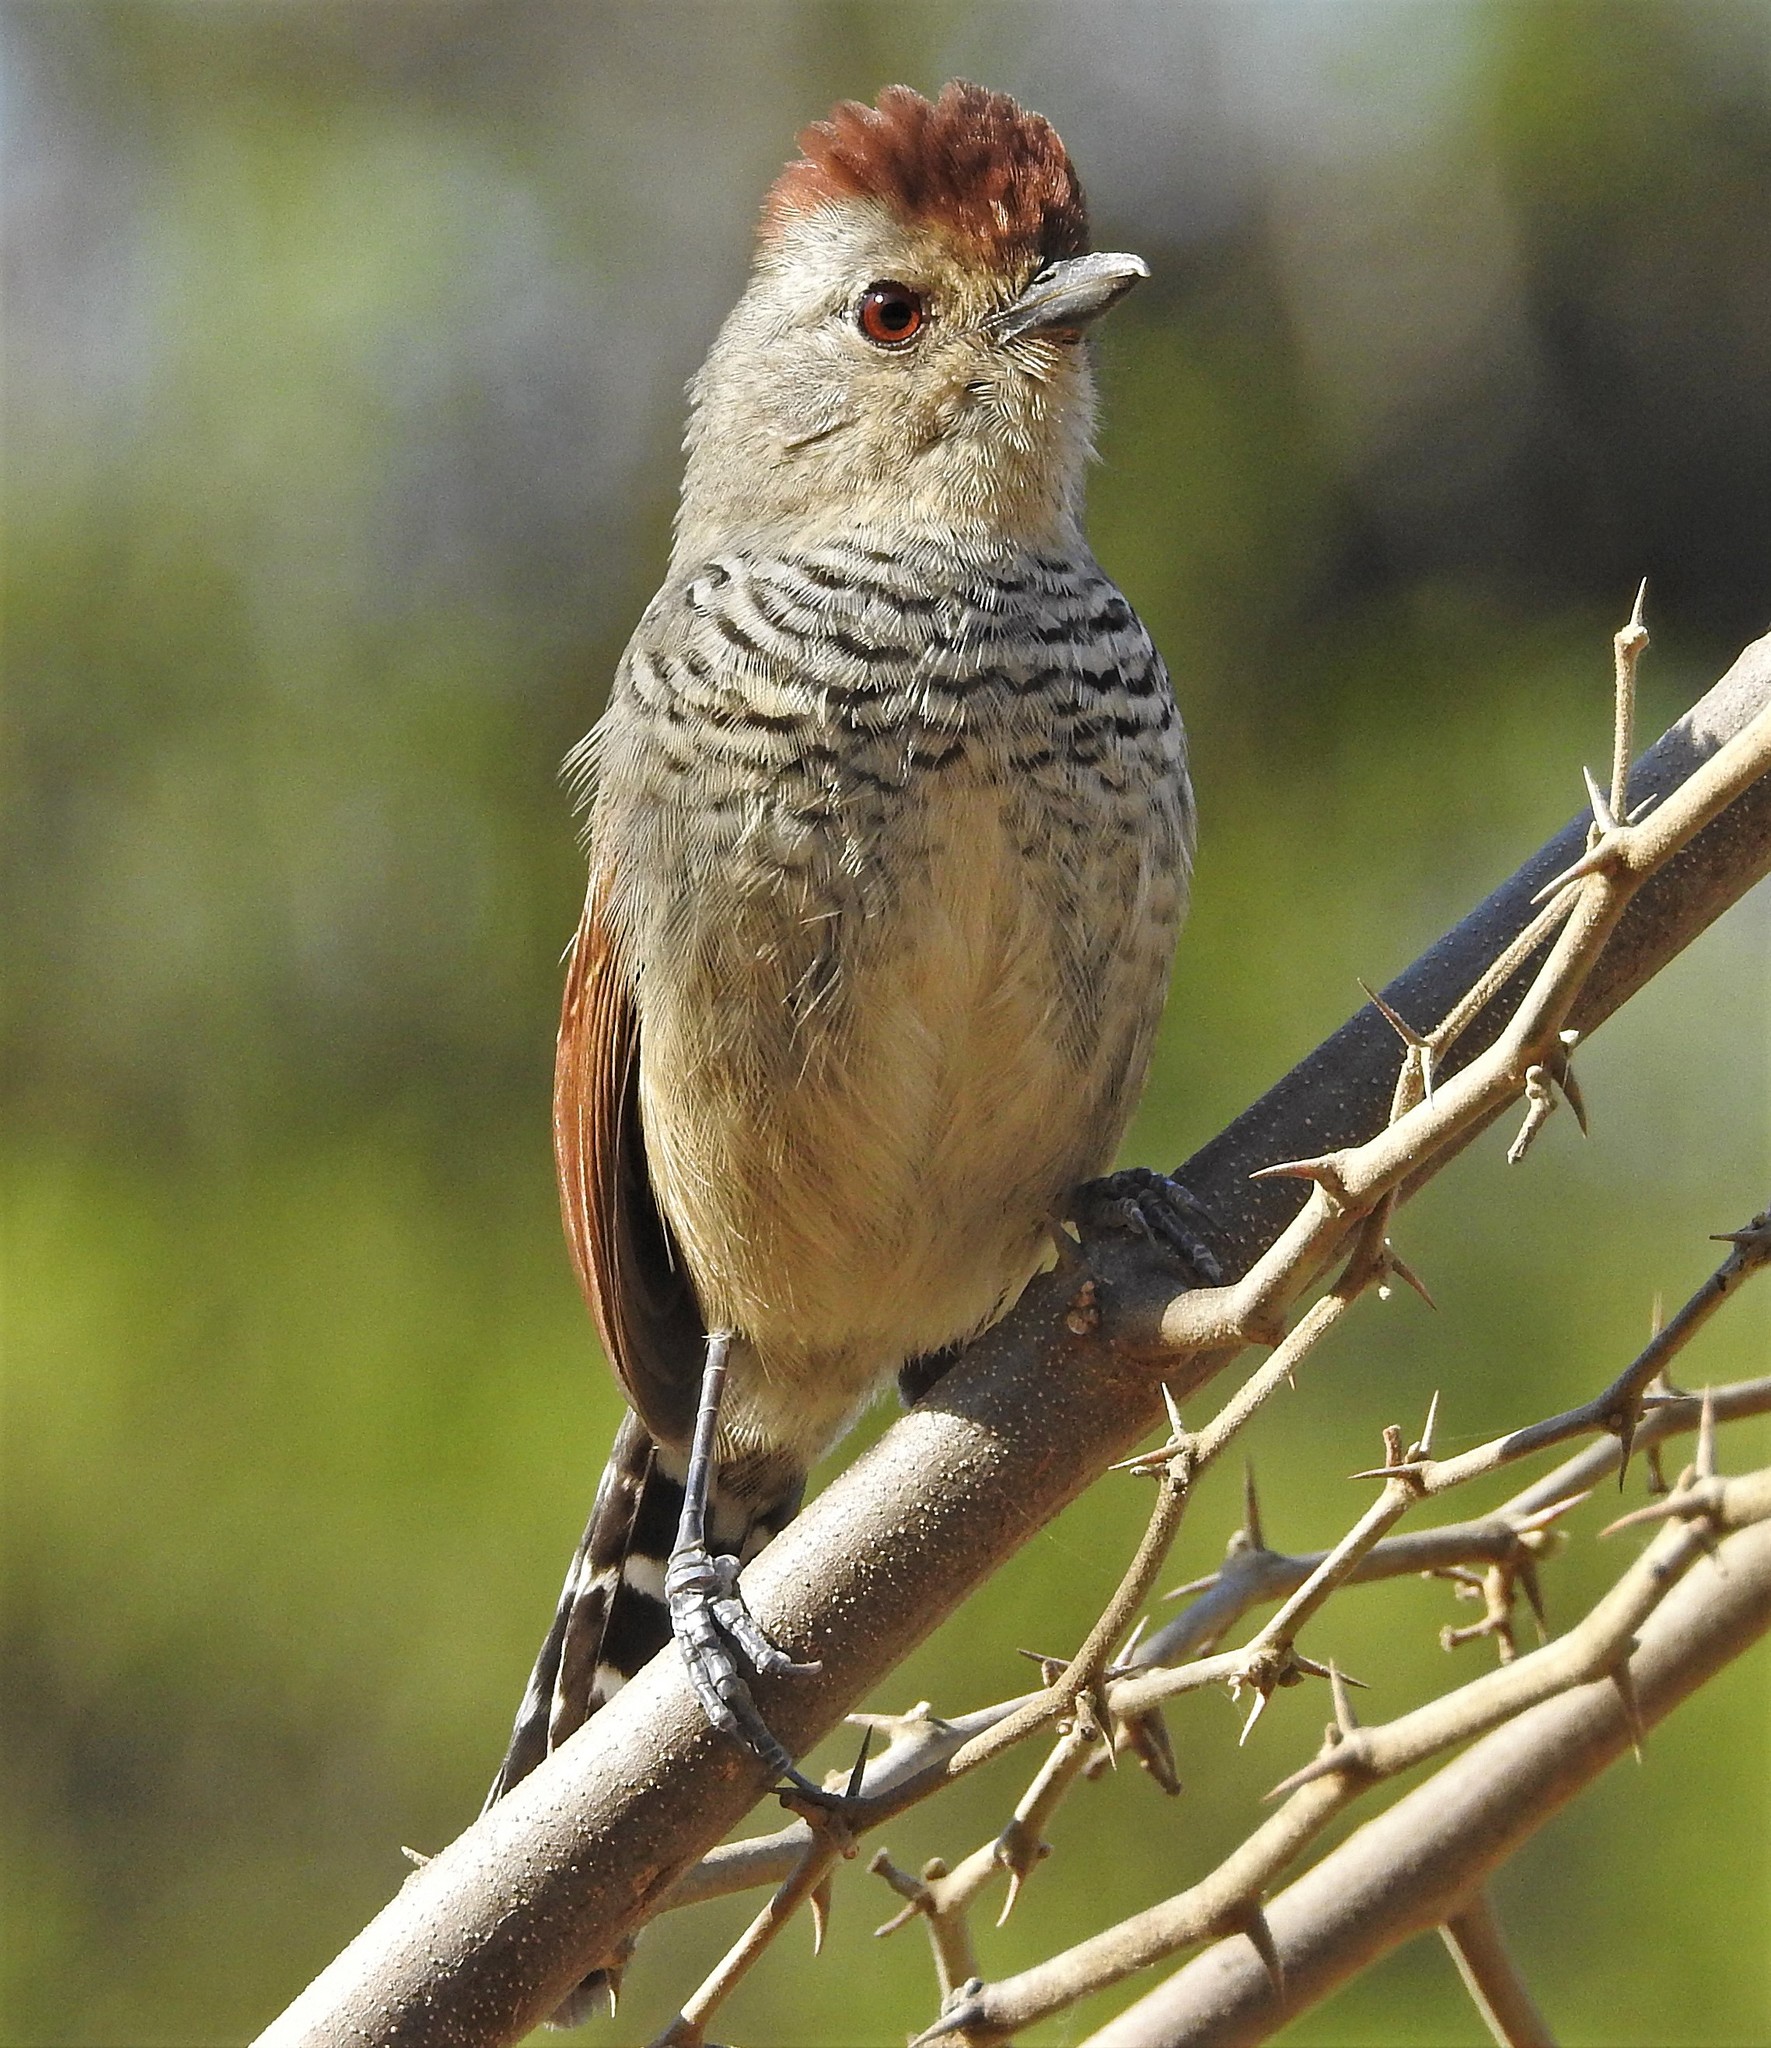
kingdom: Animalia
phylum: Chordata
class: Aves
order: Passeriformes
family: Thamnophilidae
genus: Thamnophilus
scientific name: Thamnophilus ruficapillus
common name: Rufous-capped antshrike
